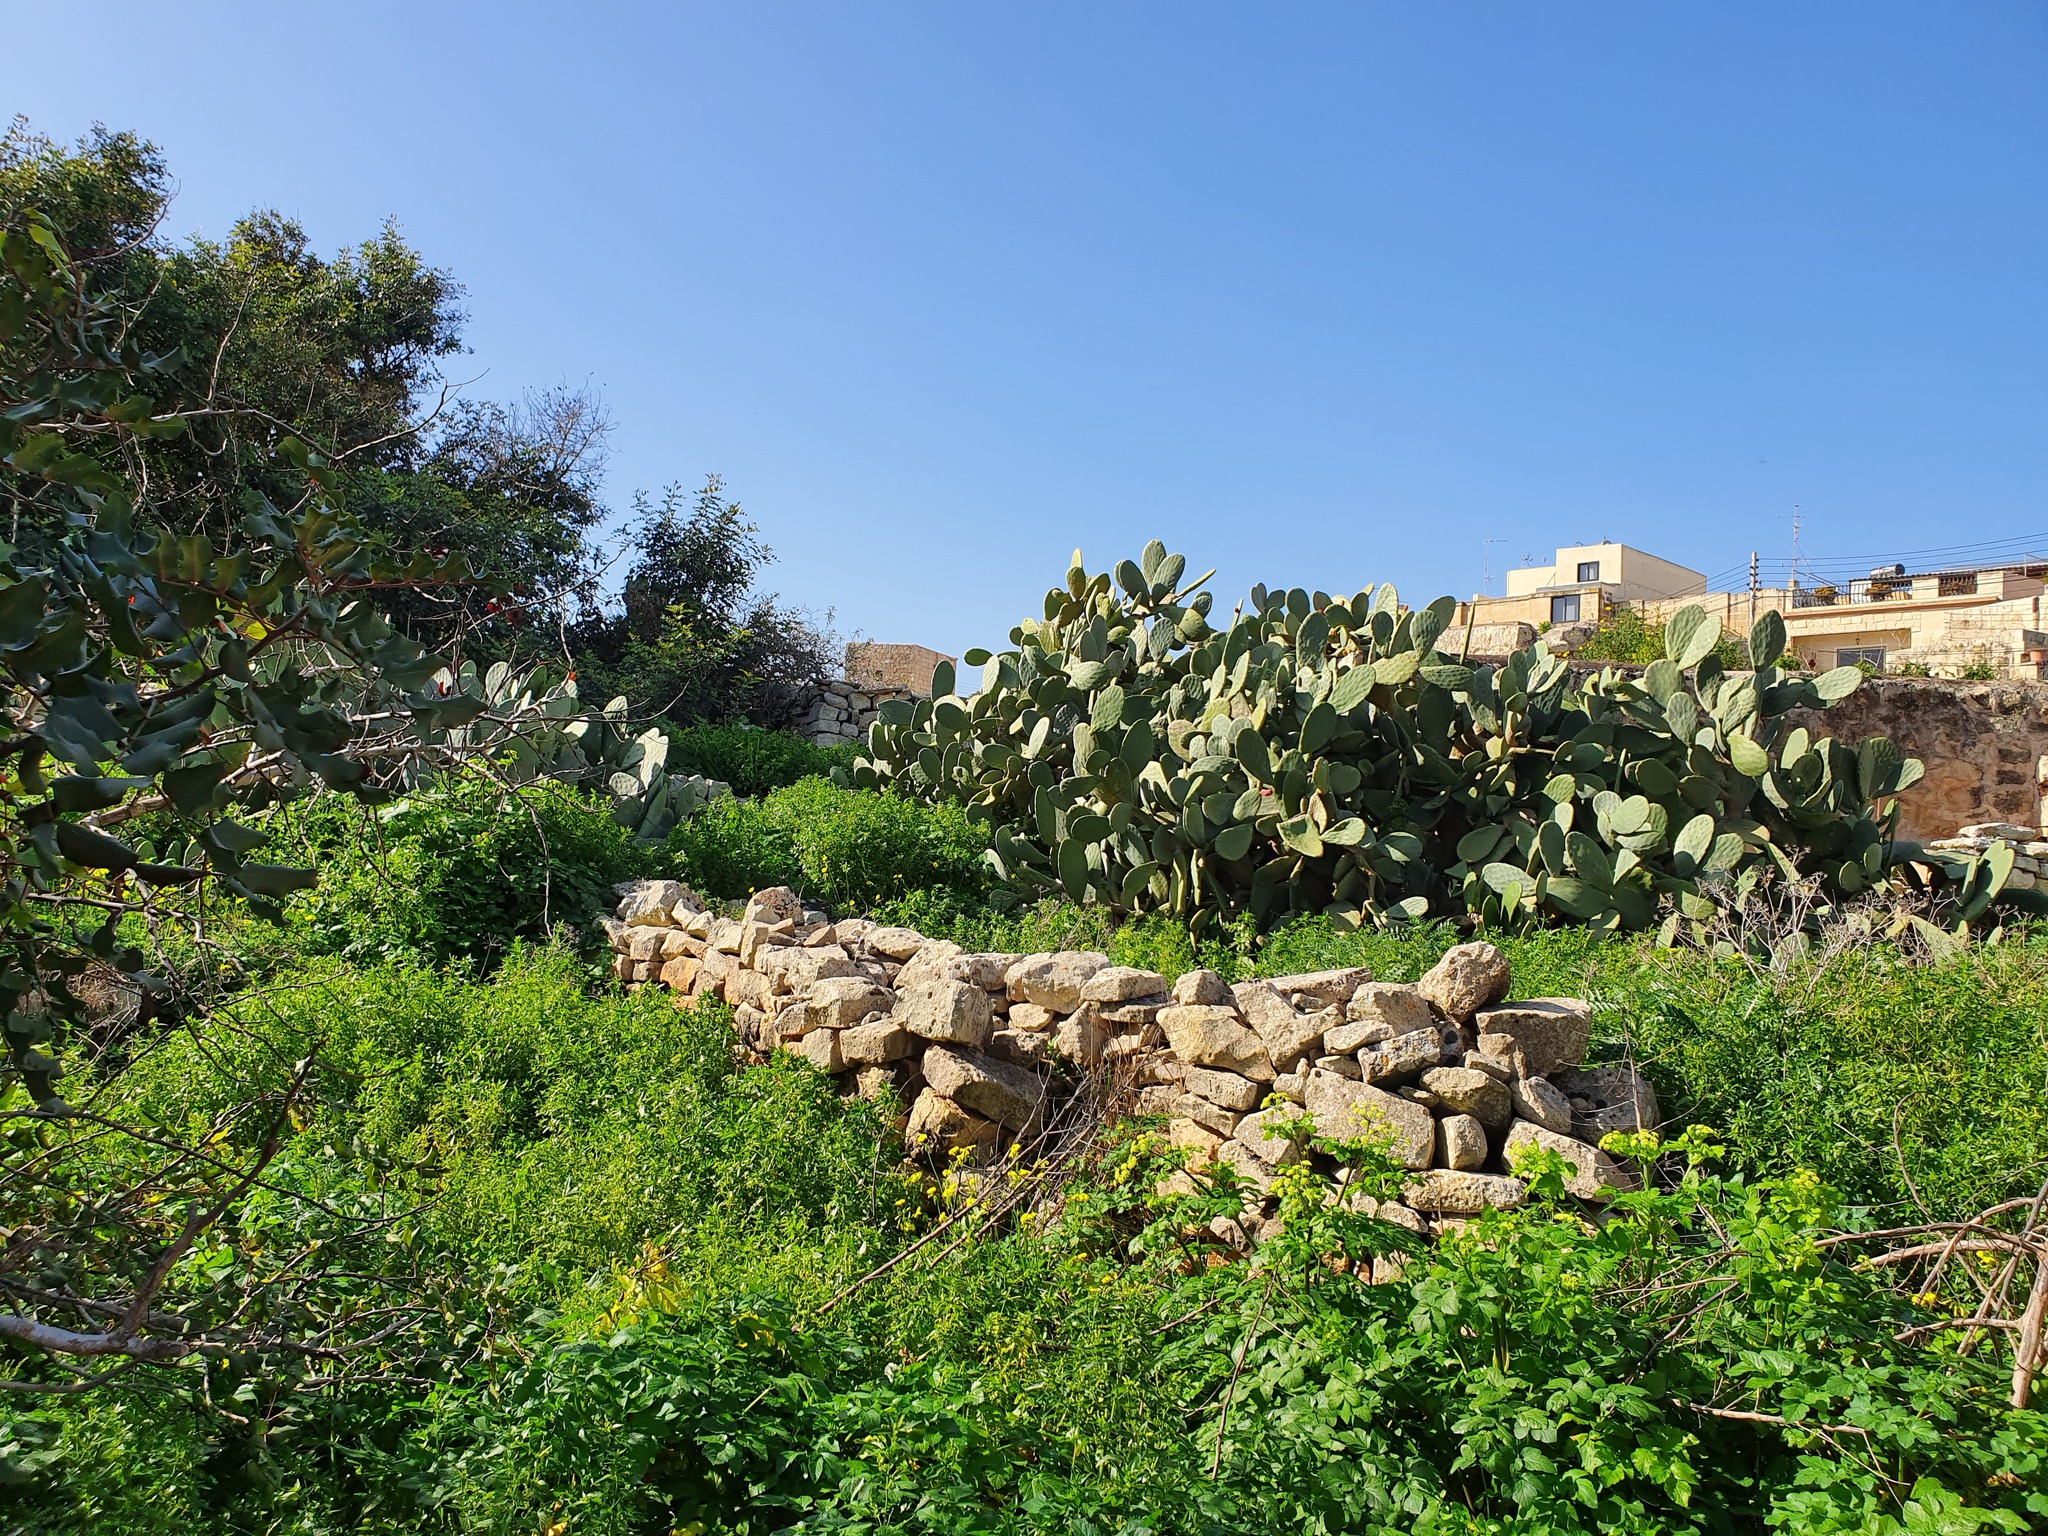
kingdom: Plantae
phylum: Tracheophyta
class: Magnoliopsida
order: Caryophyllales
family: Cactaceae
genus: Opuntia
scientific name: Opuntia ficus-indica
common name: Barbary fig
